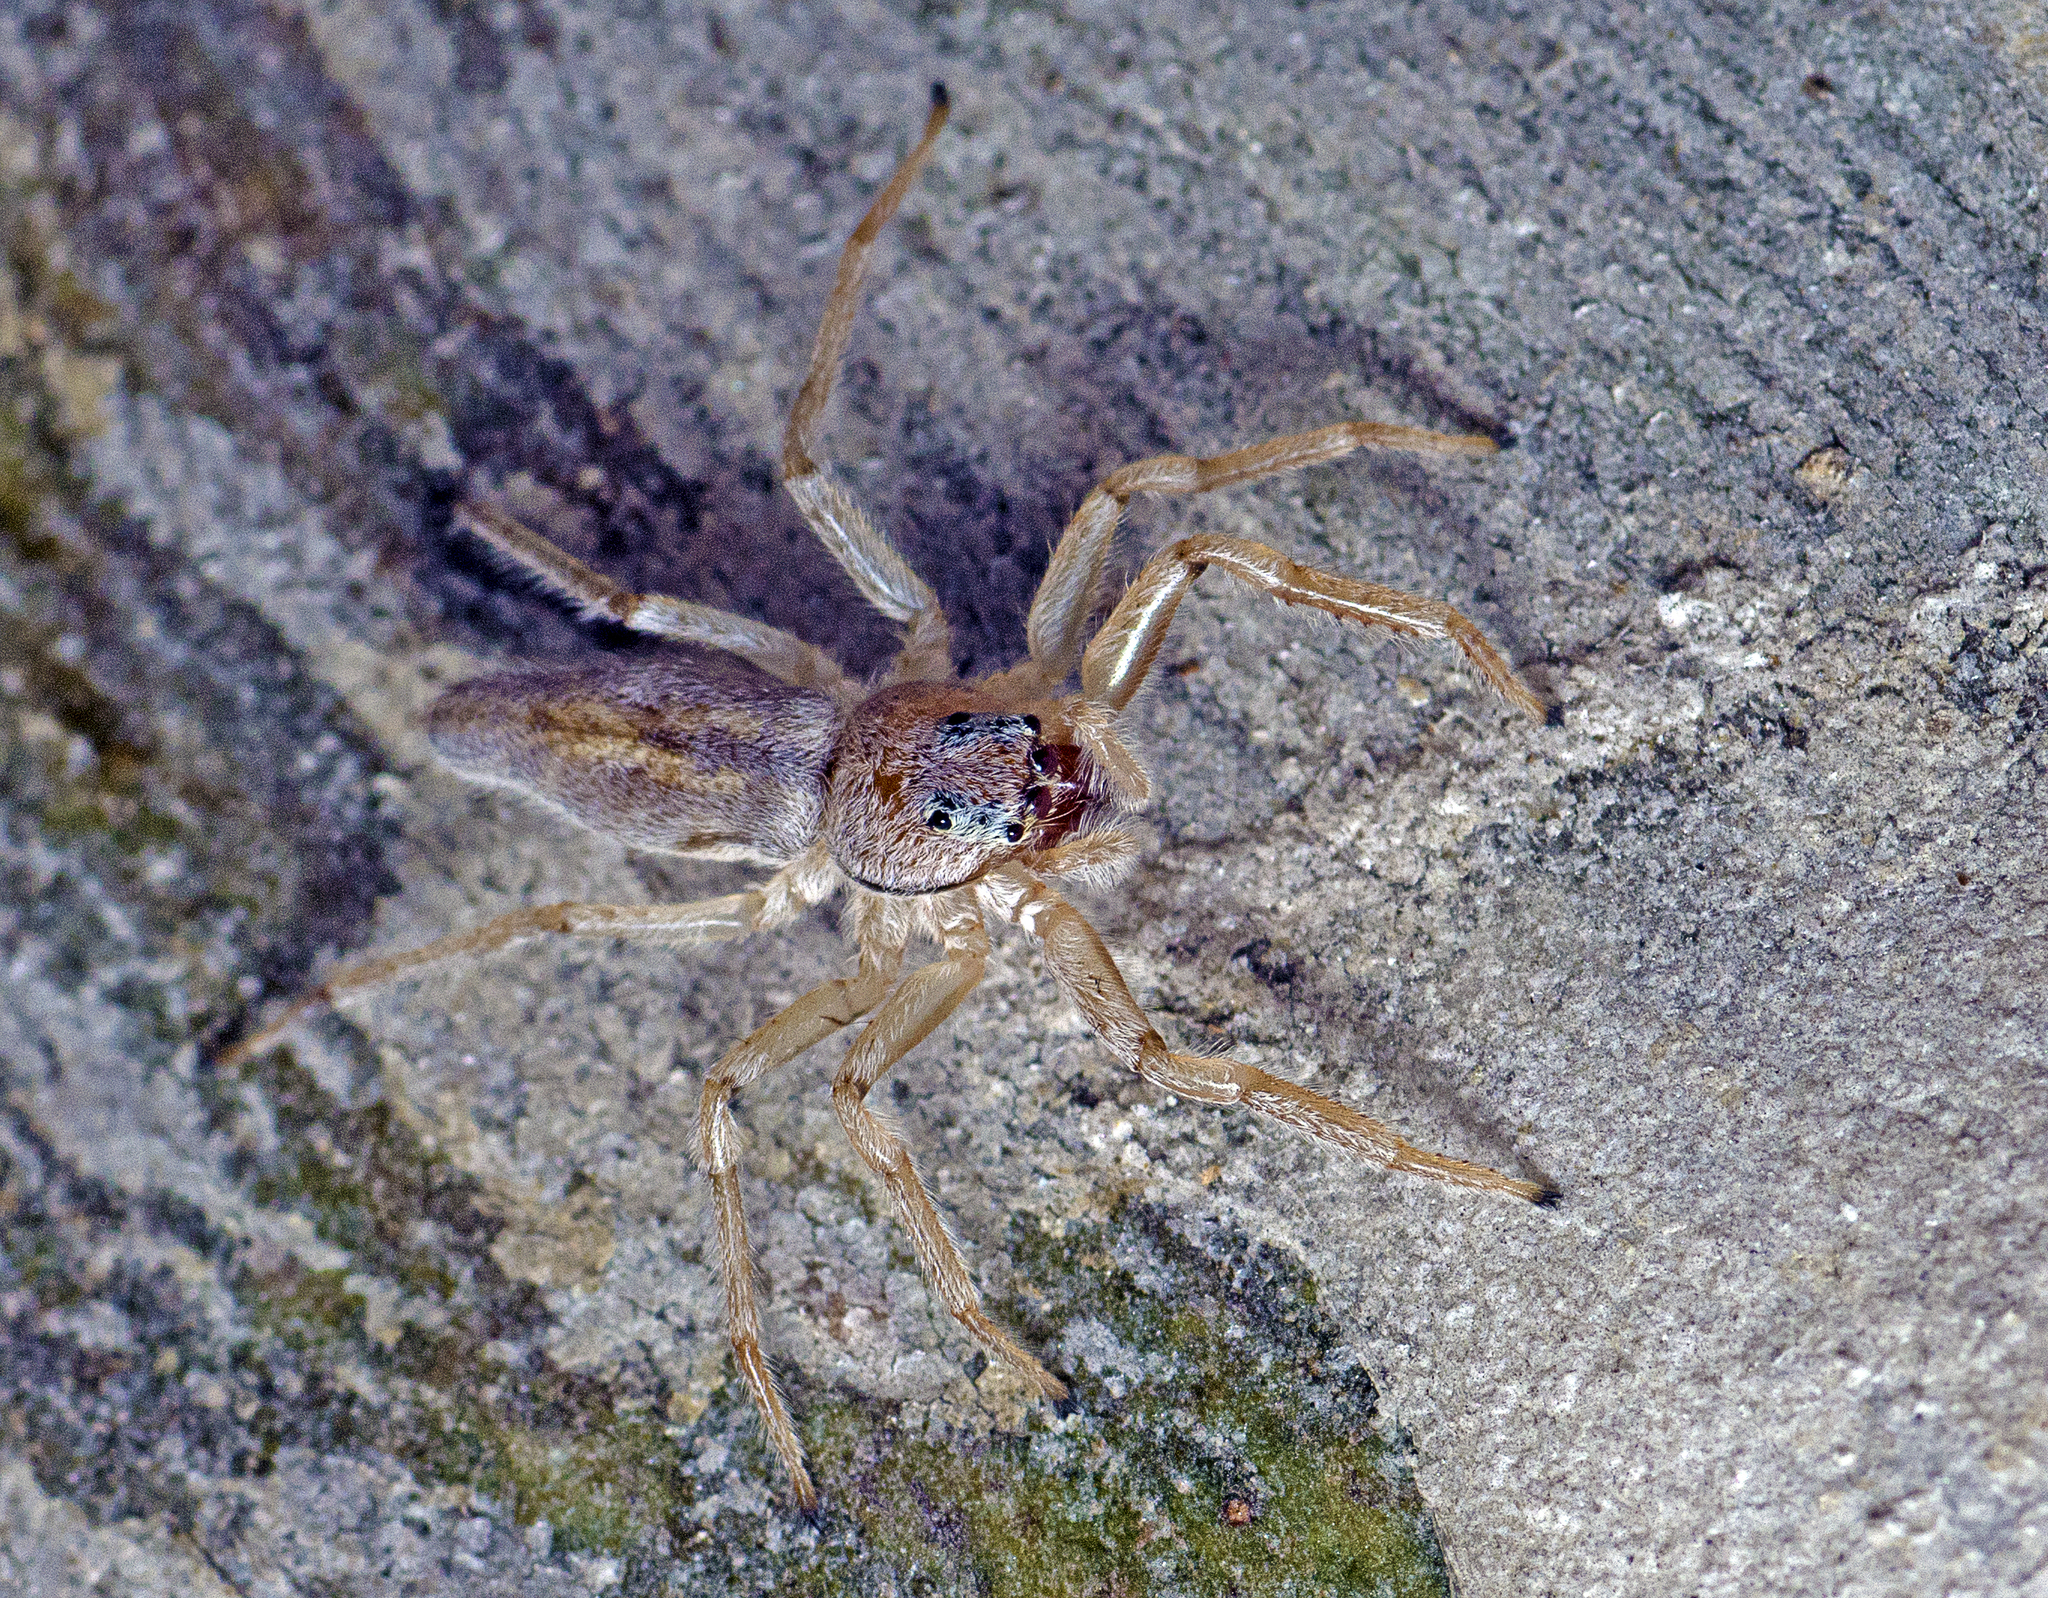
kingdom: Animalia
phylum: Arthropoda
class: Arachnida
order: Araneae
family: Salticidae
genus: Arasia
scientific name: Arasia mollicoma
